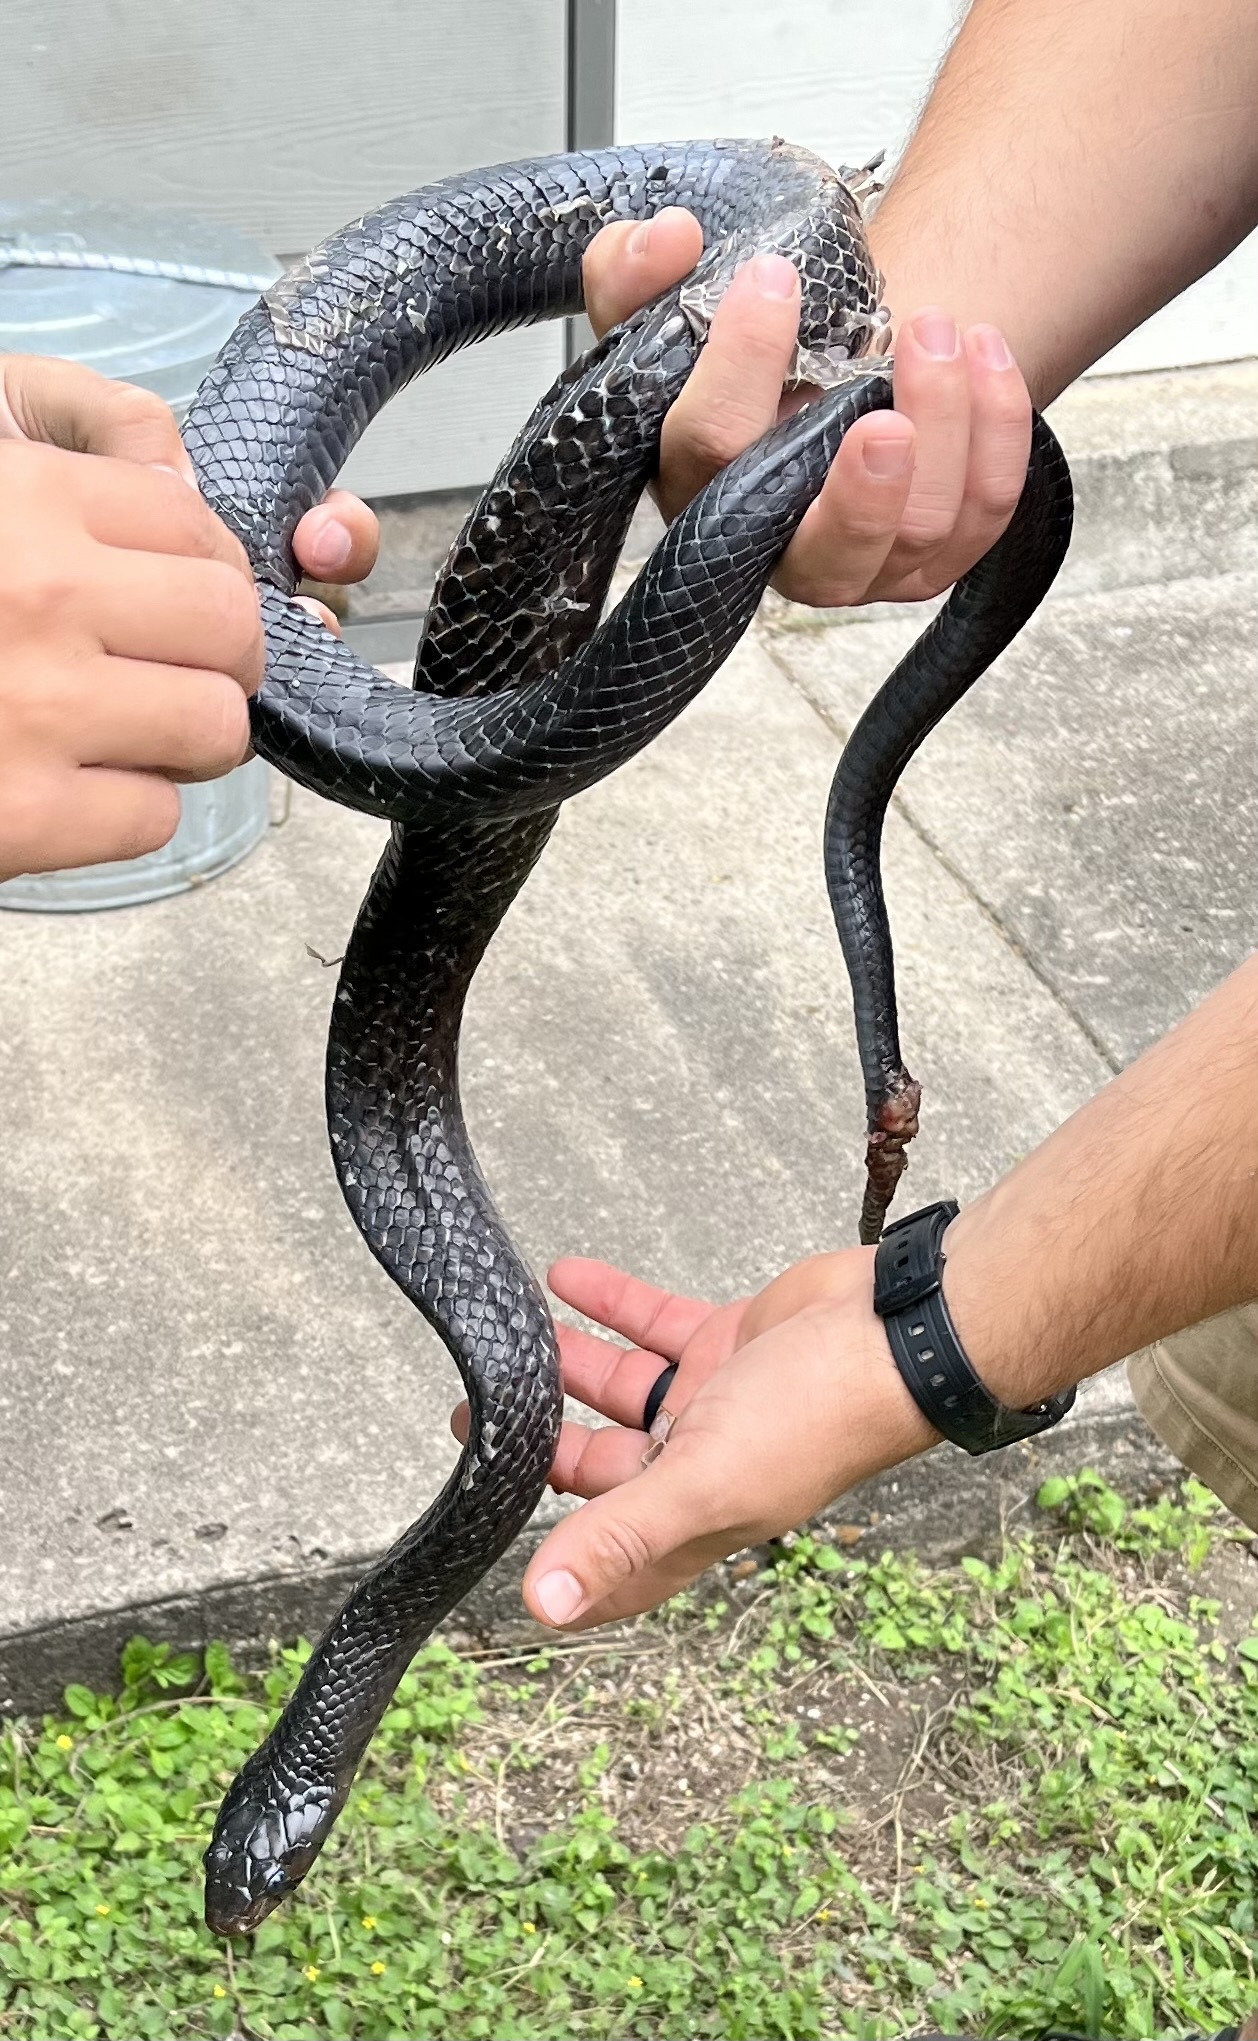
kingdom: Animalia
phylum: Chordata
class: Squamata
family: Colubridae
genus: Drymarchon
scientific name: Drymarchon melanurus
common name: Central american indigo snake
